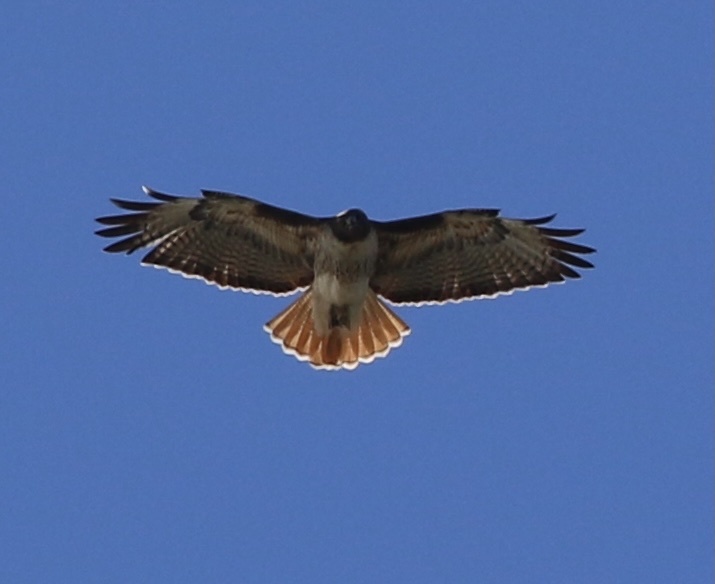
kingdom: Animalia
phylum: Chordata
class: Aves
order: Accipitriformes
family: Accipitridae
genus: Buteo
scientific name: Buteo jamaicensis
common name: Red-tailed hawk
